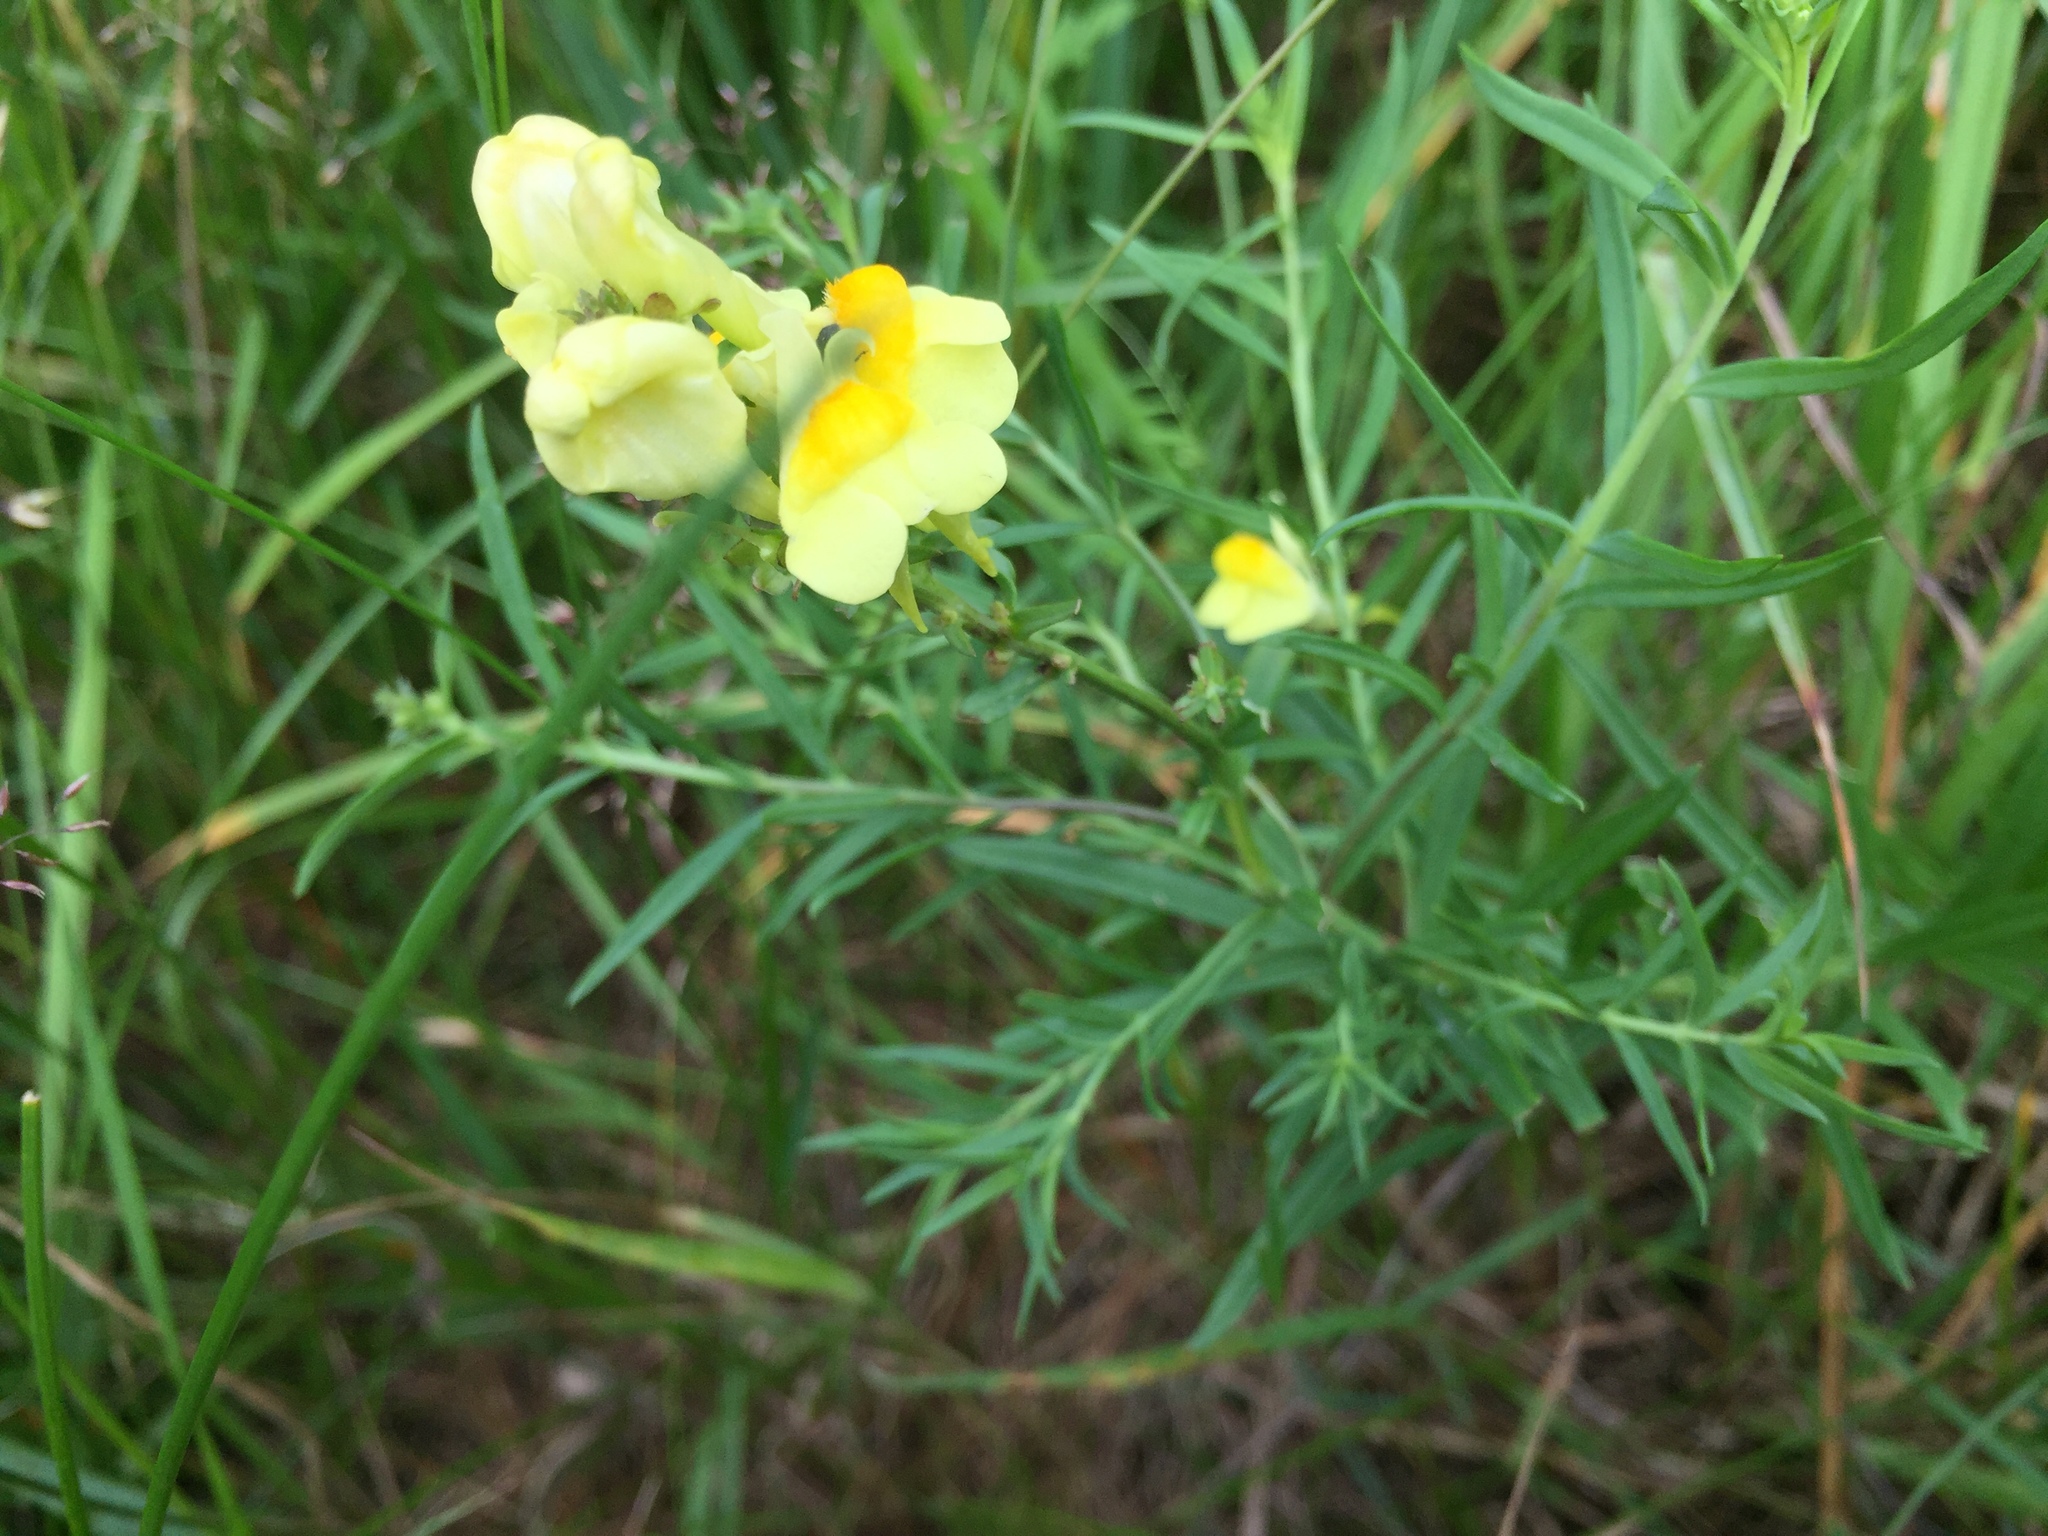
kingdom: Plantae
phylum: Tracheophyta
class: Magnoliopsida
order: Lamiales
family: Plantaginaceae
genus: Linaria
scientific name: Linaria vulgaris
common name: Butter and eggs
